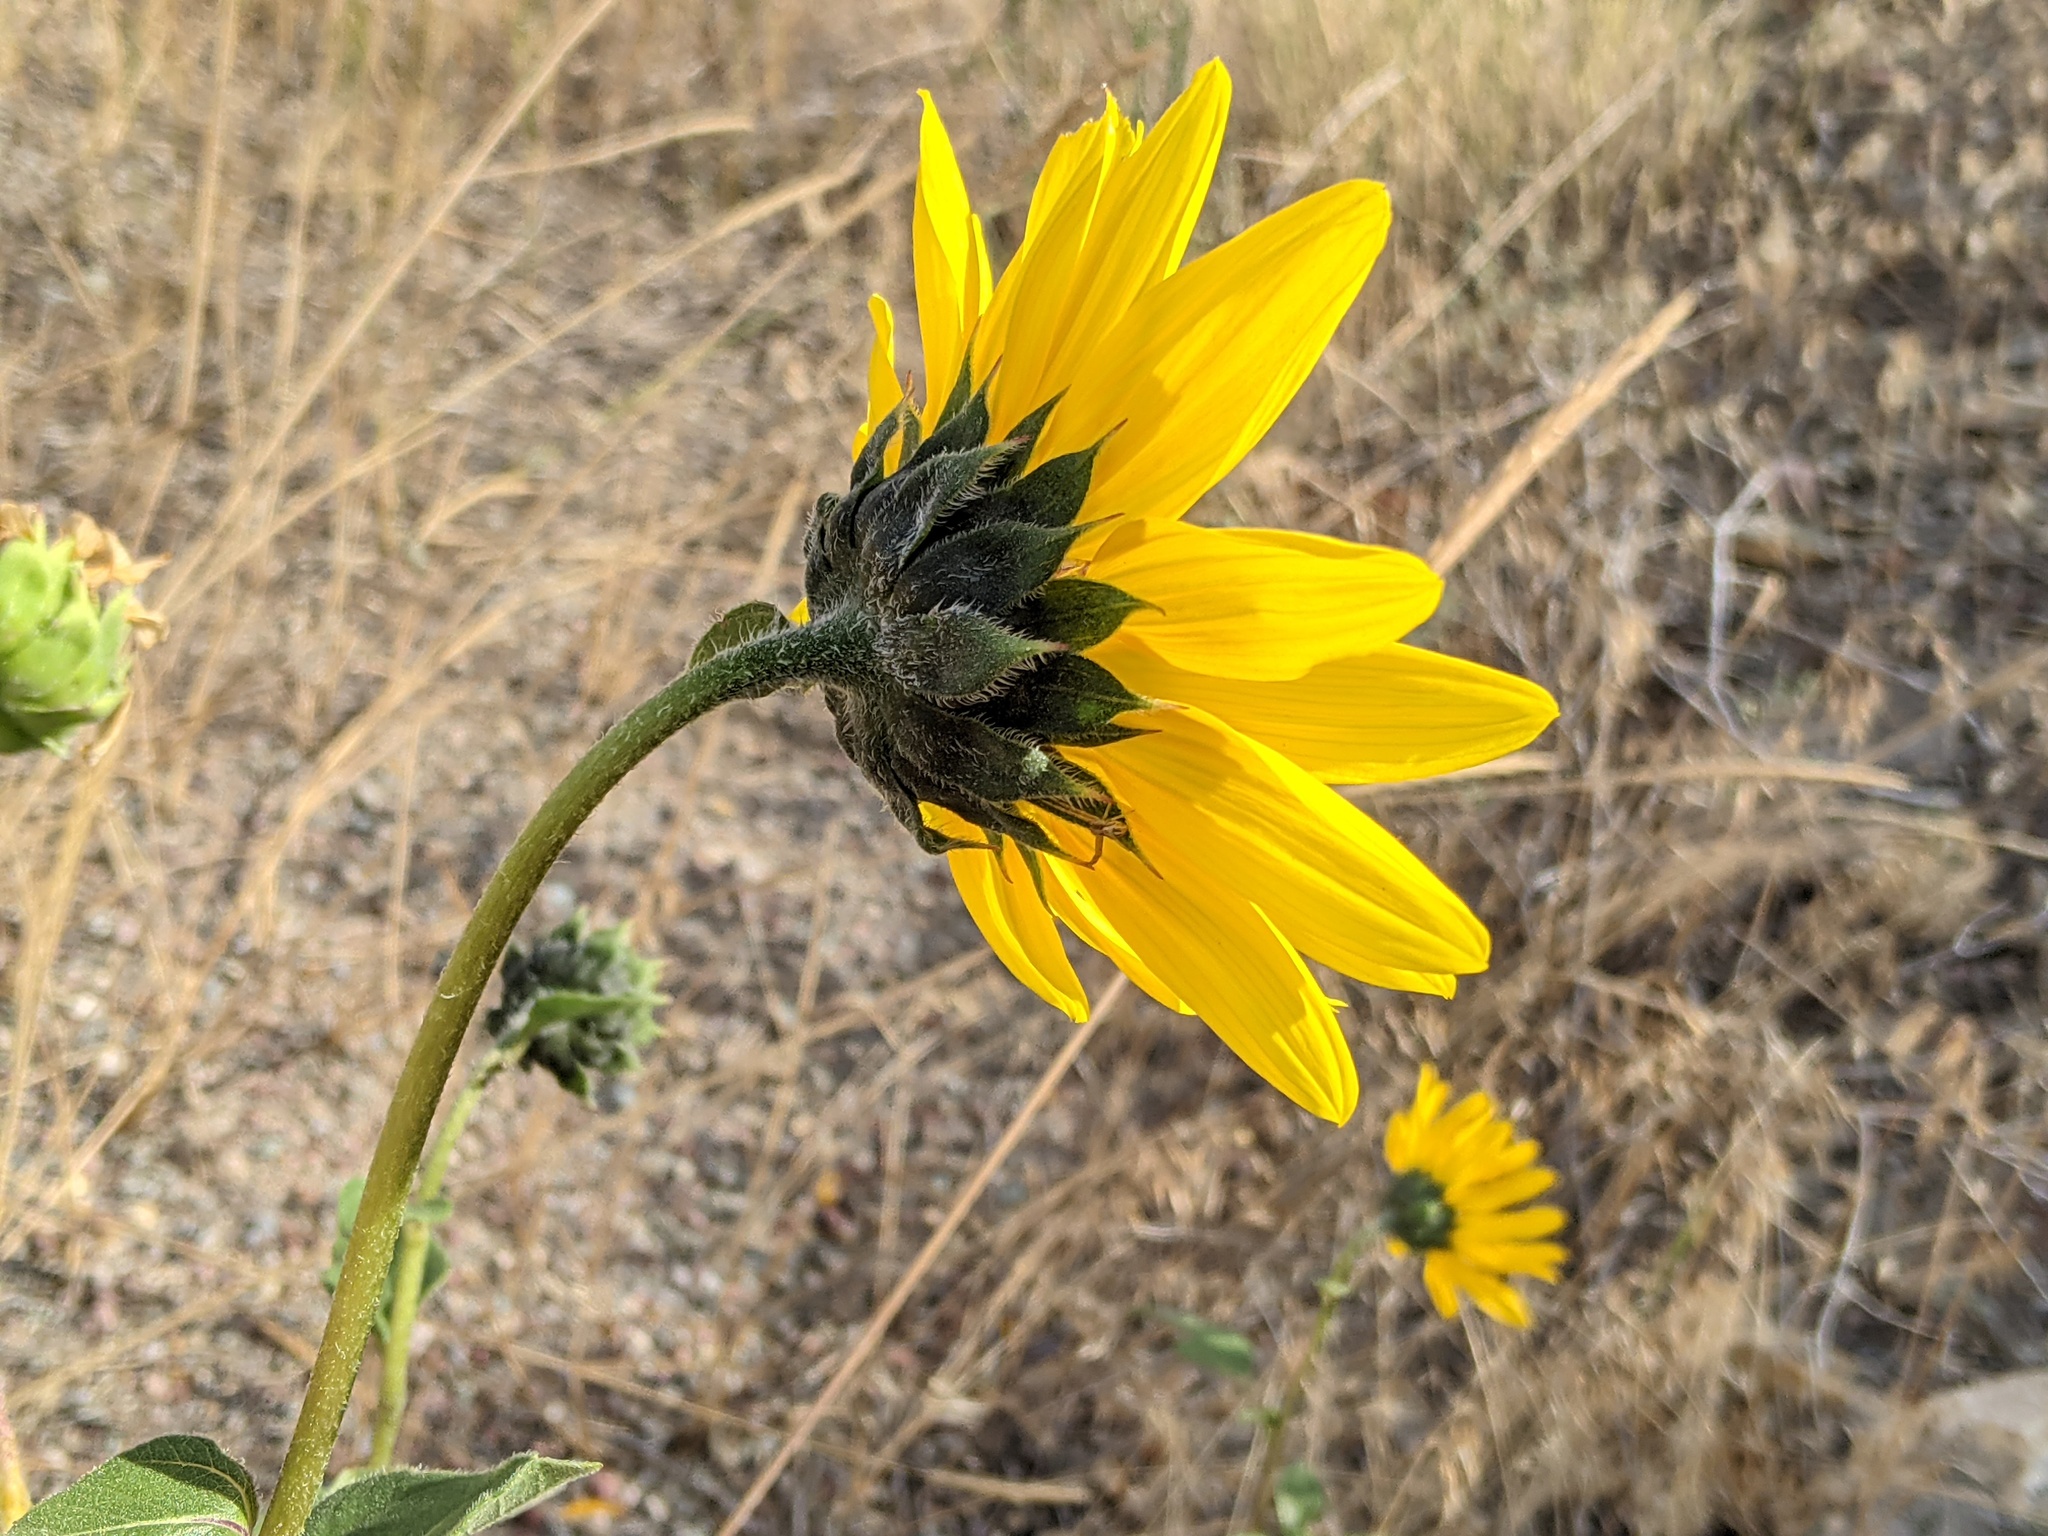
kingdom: Plantae
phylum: Tracheophyta
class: Magnoliopsida
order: Asterales
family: Asteraceae
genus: Helianthus
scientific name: Helianthus annuus
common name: Sunflower
